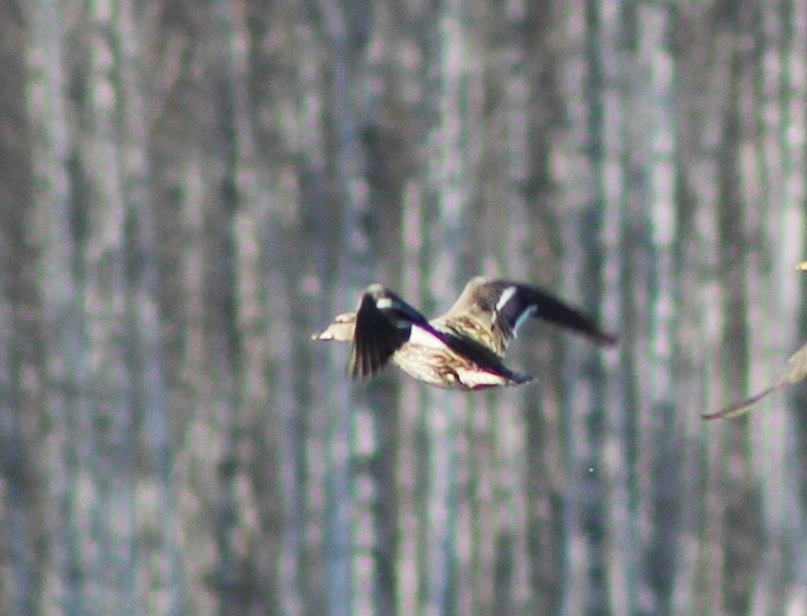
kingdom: Animalia
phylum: Chordata
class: Aves
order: Anseriformes
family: Anatidae
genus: Anas
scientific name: Anas platyrhynchos
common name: Mallard
